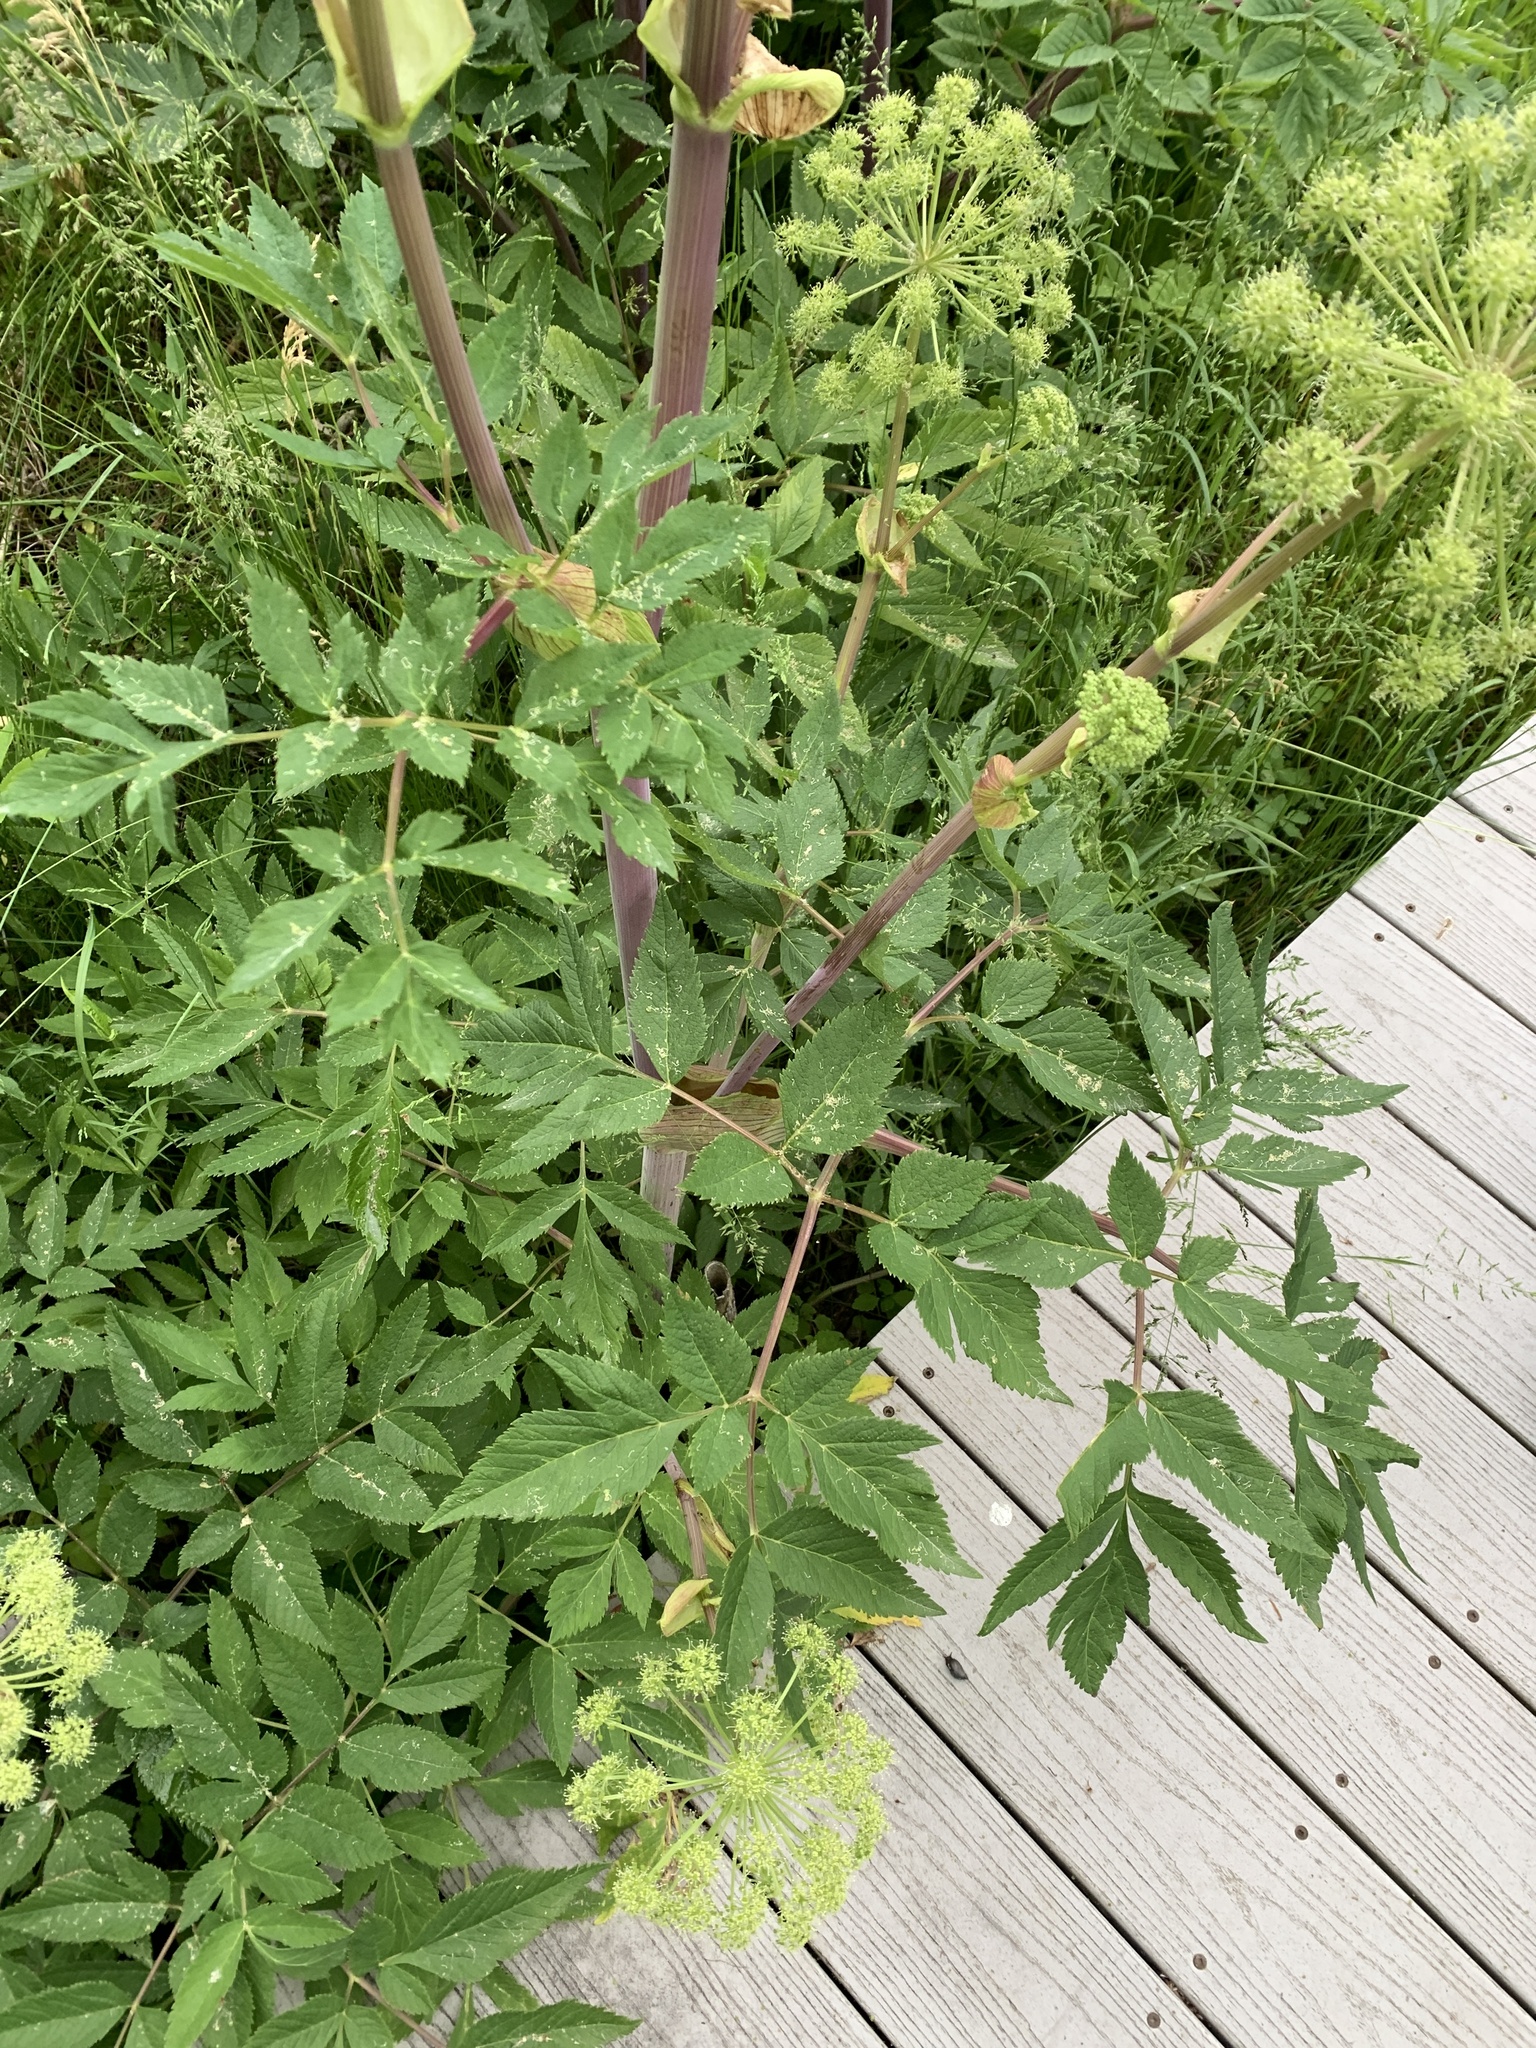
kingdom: Plantae
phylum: Tracheophyta
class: Magnoliopsida
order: Apiales
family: Apiaceae
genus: Angelica
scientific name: Angelica atropurpurea
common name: Great angelica
